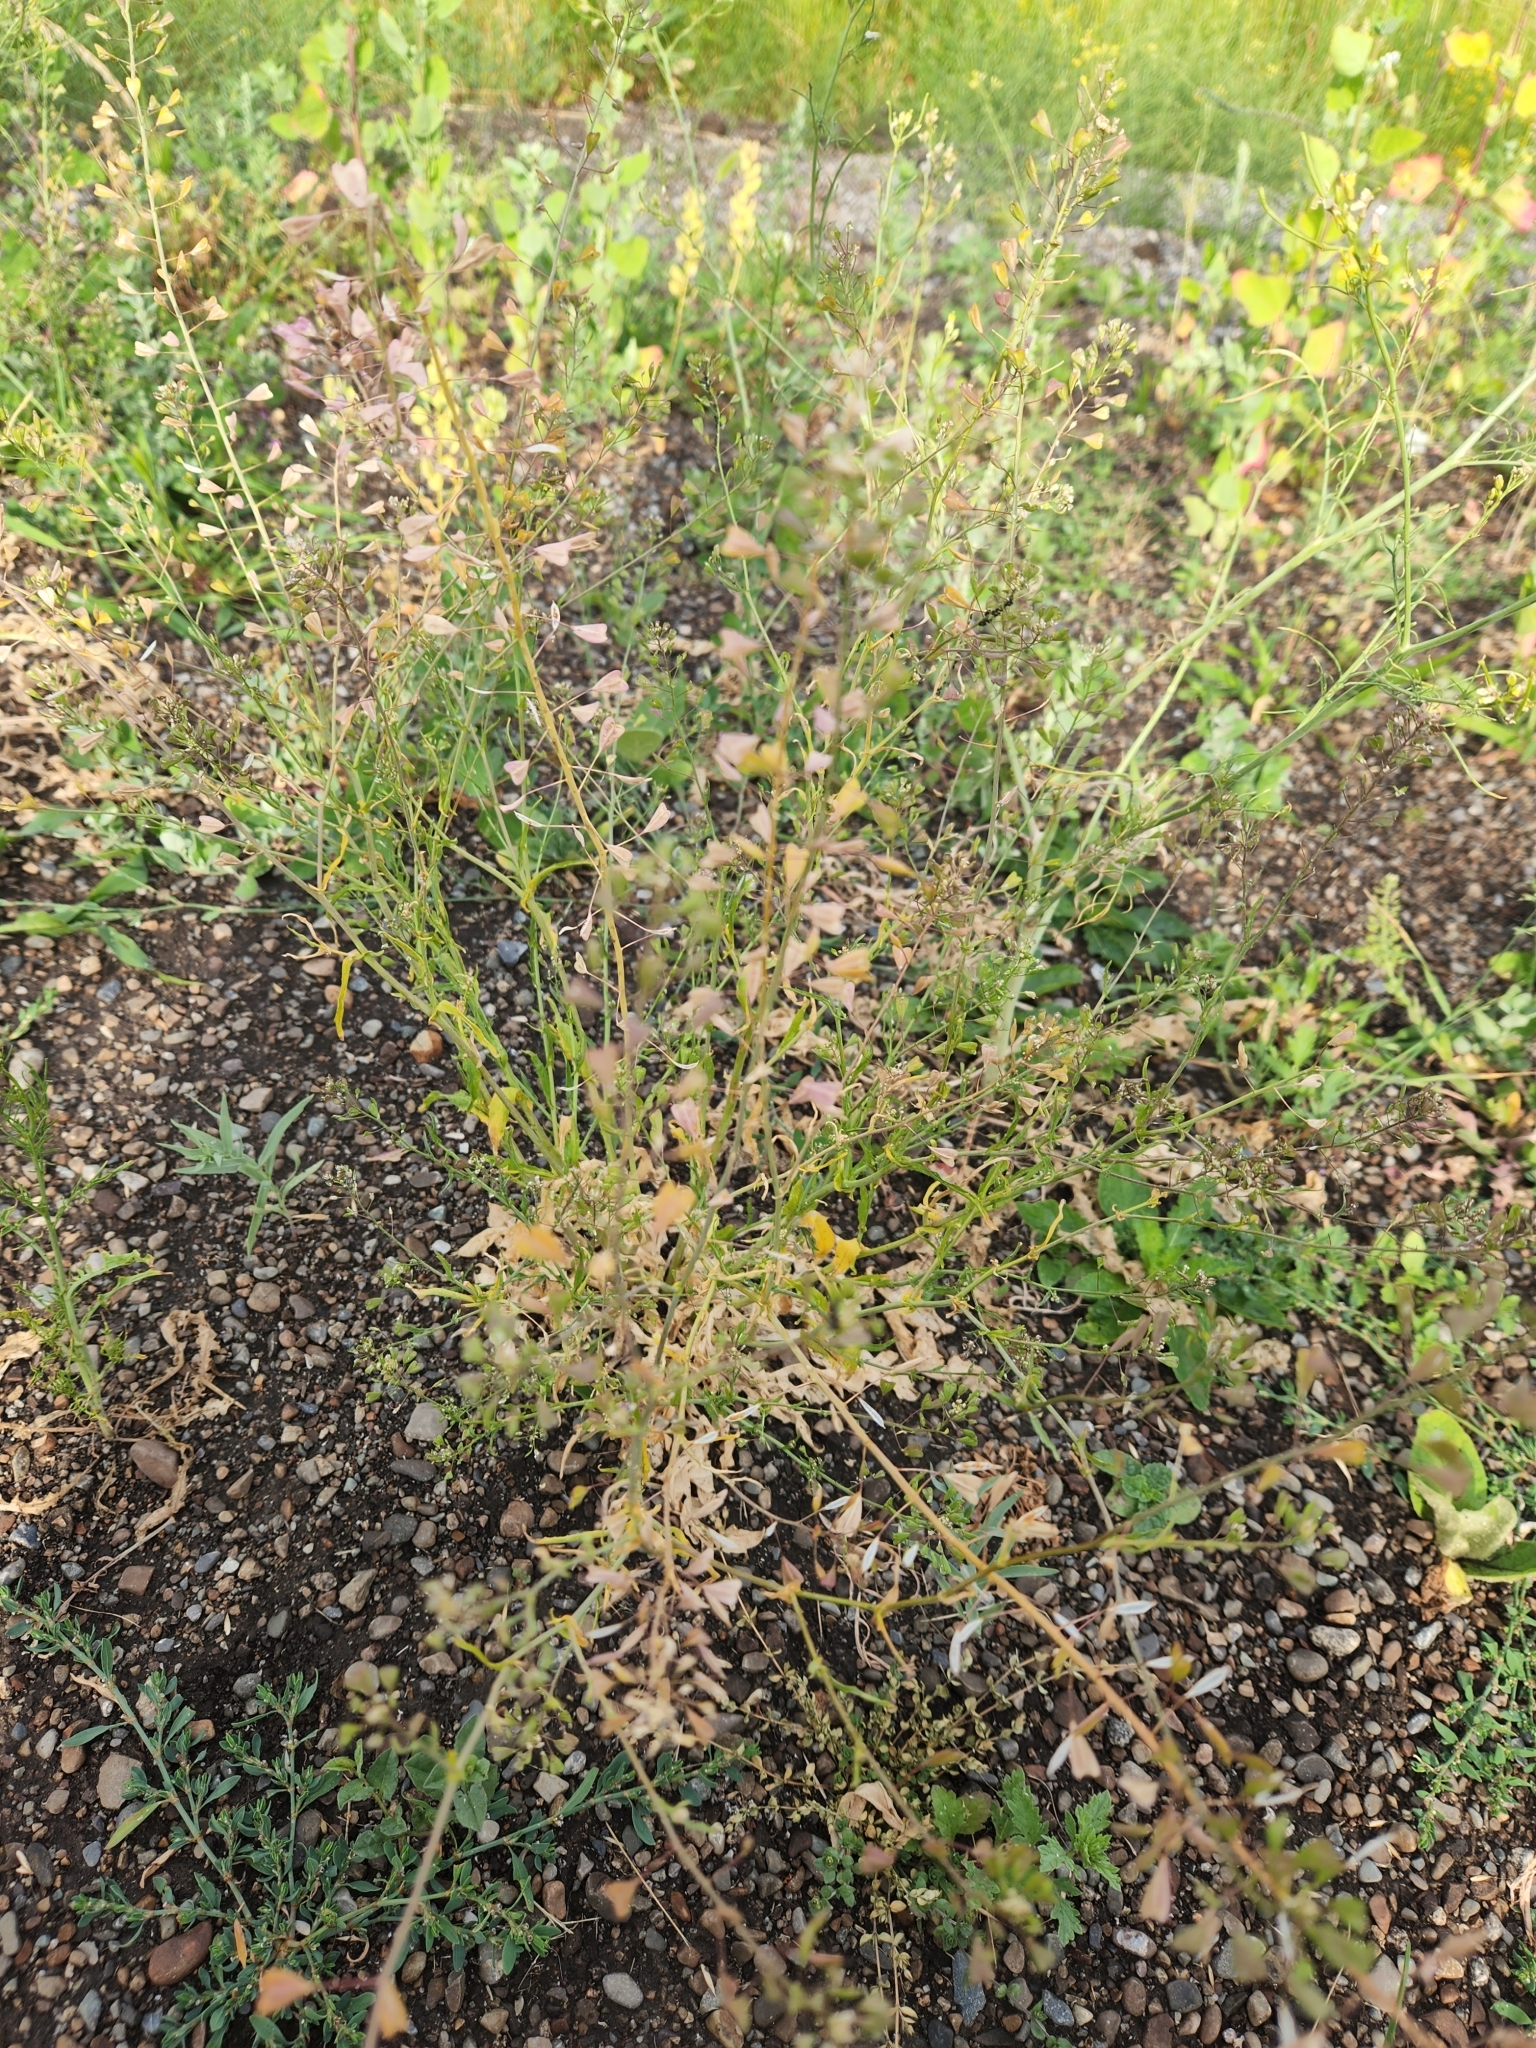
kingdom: Plantae
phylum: Tracheophyta
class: Magnoliopsida
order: Brassicales
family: Brassicaceae
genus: Capsella
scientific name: Capsella bursa-pastoris
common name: Shepherd's purse
